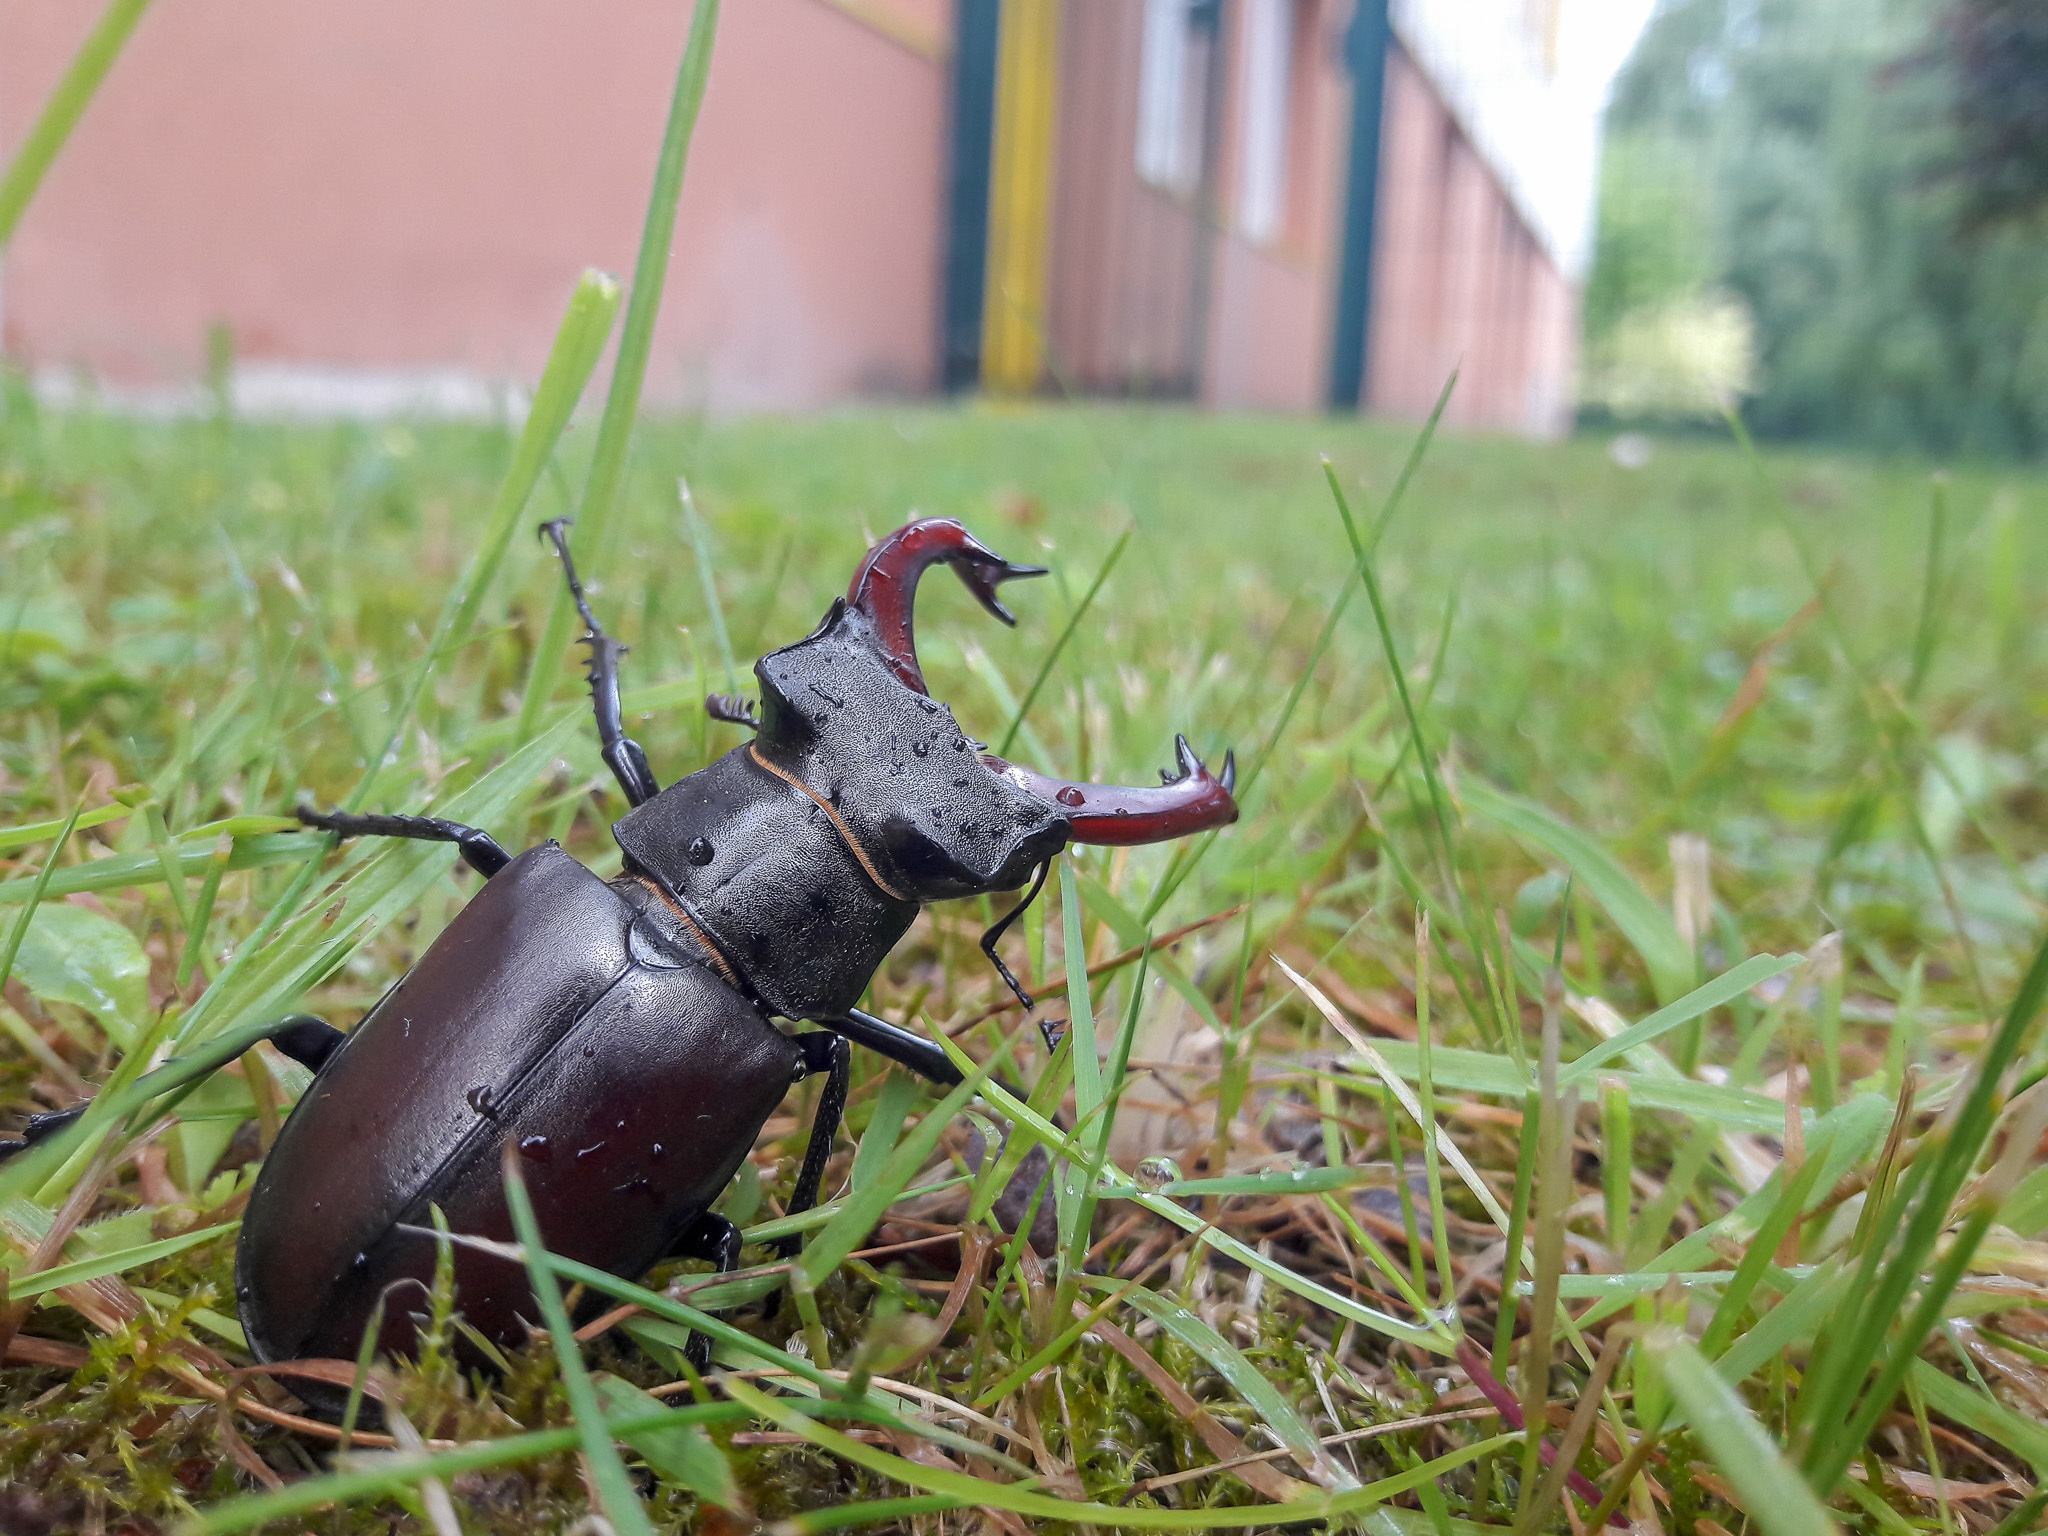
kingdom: Animalia
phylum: Arthropoda
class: Insecta
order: Coleoptera
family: Lucanidae
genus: Lucanus
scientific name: Lucanus cervus
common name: Stag beetle
